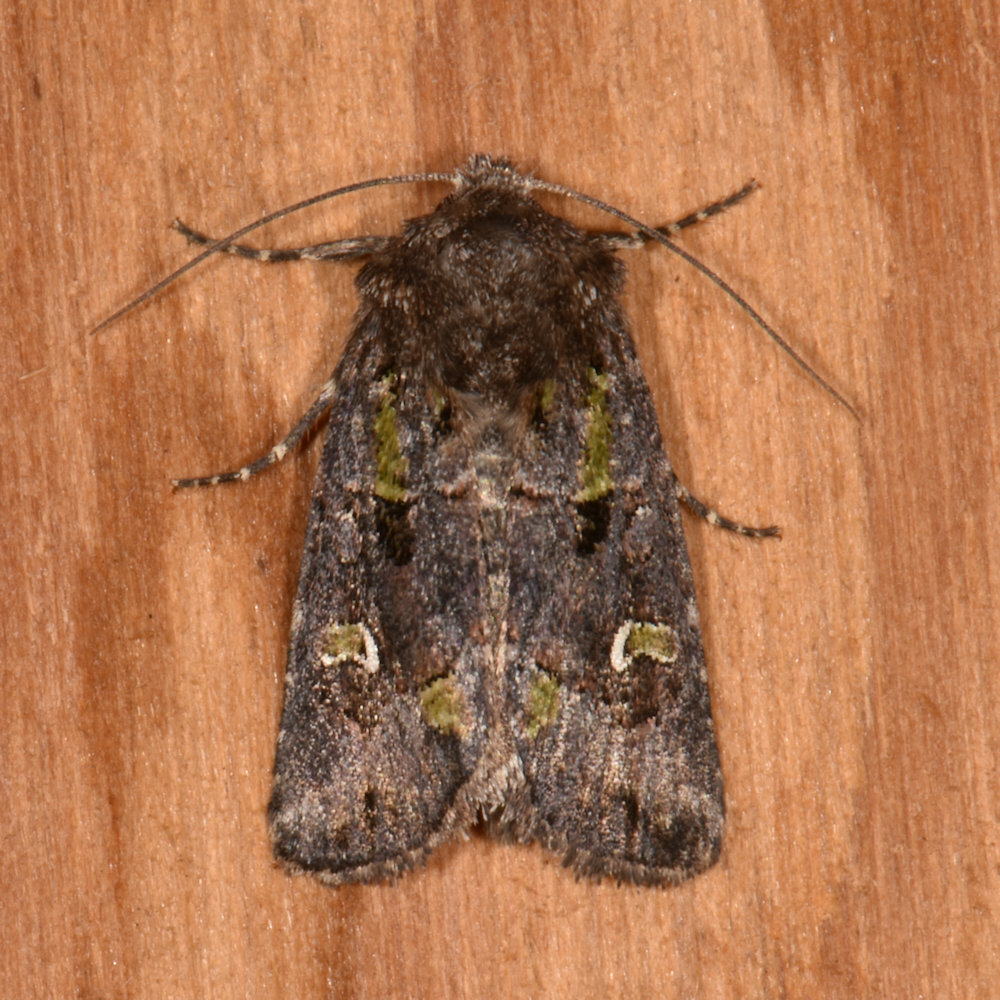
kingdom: Animalia
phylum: Arthropoda
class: Insecta
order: Lepidoptera
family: Noctuidae
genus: Lacinipolia
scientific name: Lacinipolia renigera
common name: Kidney-spotted minor
